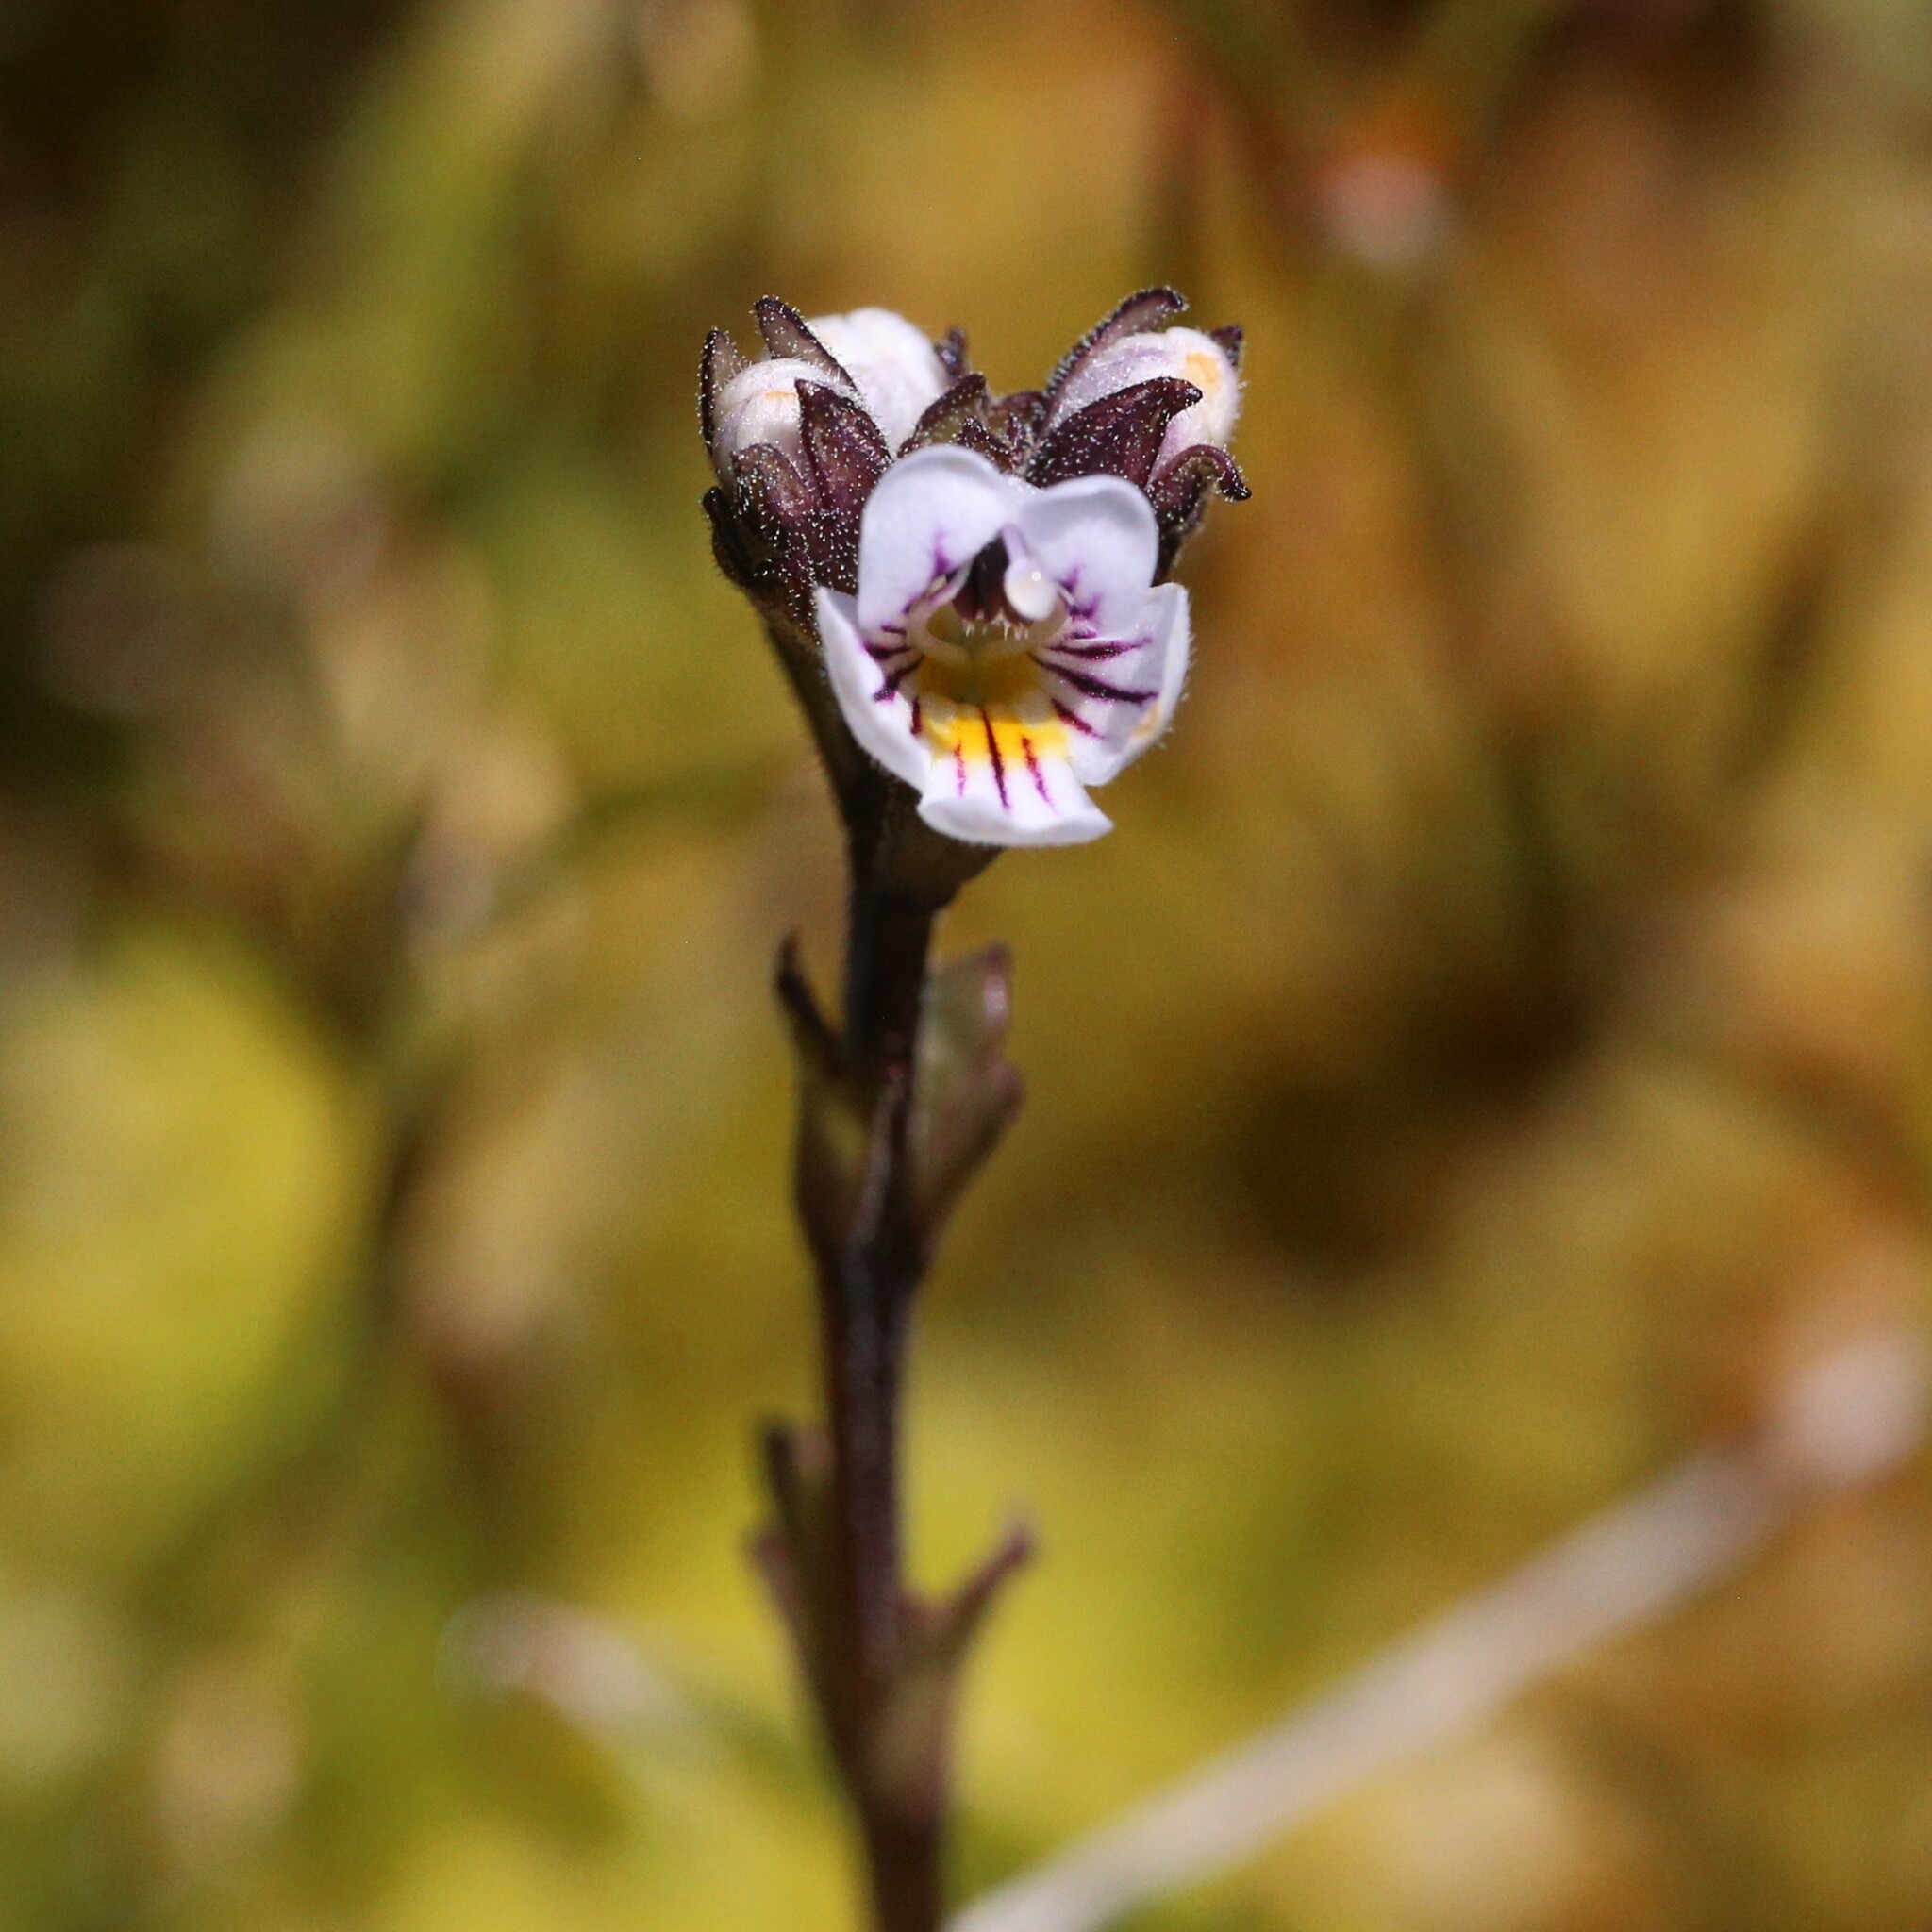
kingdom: Plantae
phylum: Tracheophyta
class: Magnoliopsida
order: Lamiales
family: Orobanchaceae
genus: Euphrasia
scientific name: Euphrasia gibbsiae
